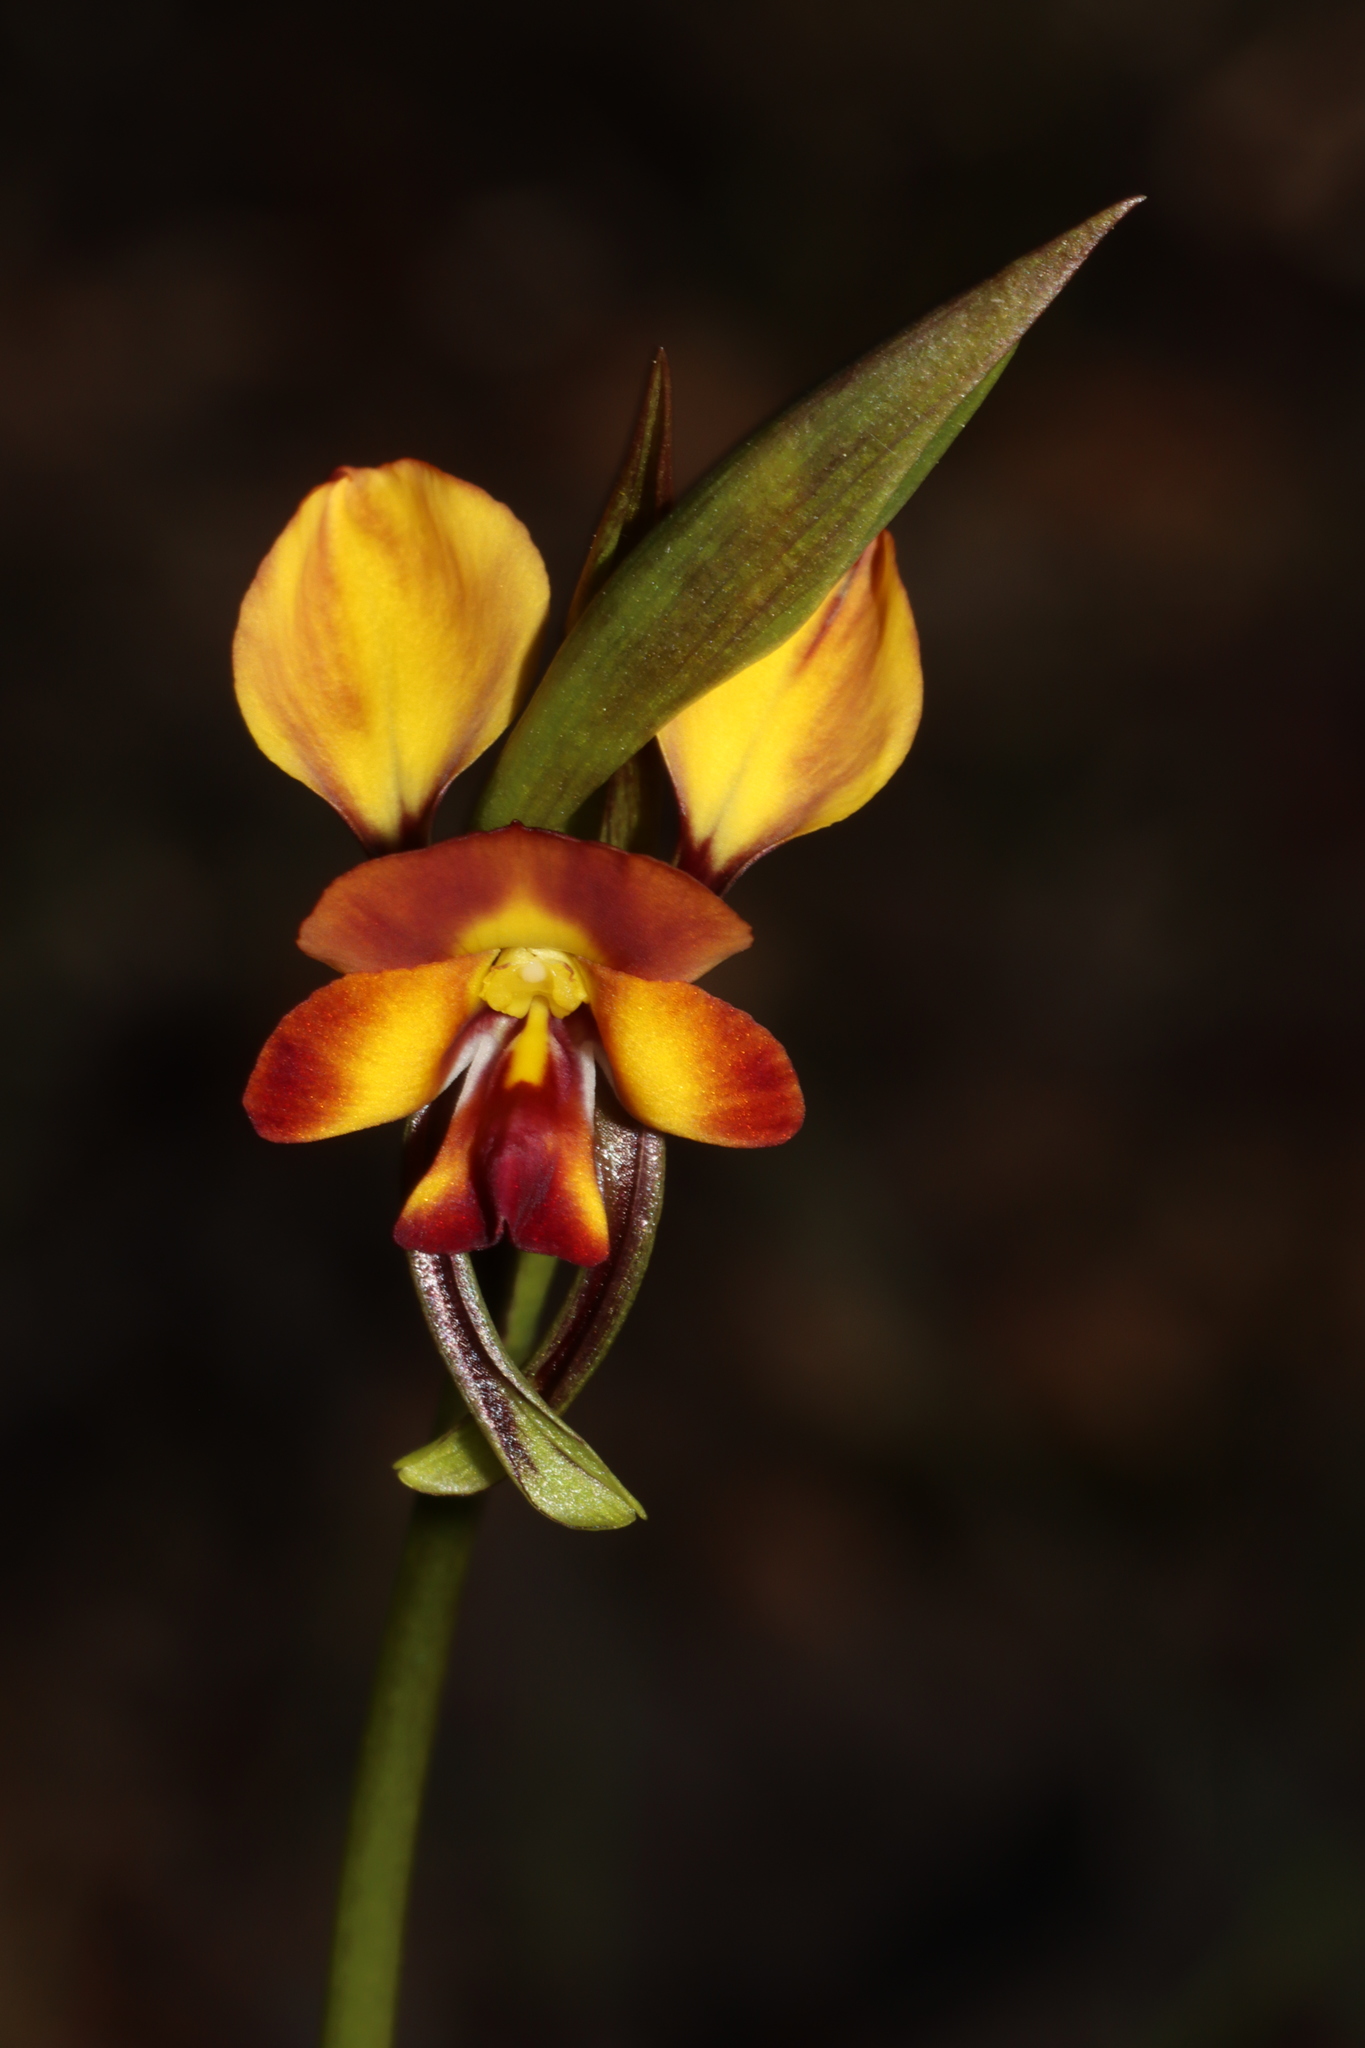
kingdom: Plantae
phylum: Tracheophyta
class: Liliopsida
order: Asparagales
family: Orchidaceae
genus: Diuris
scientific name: Diuris orientis
